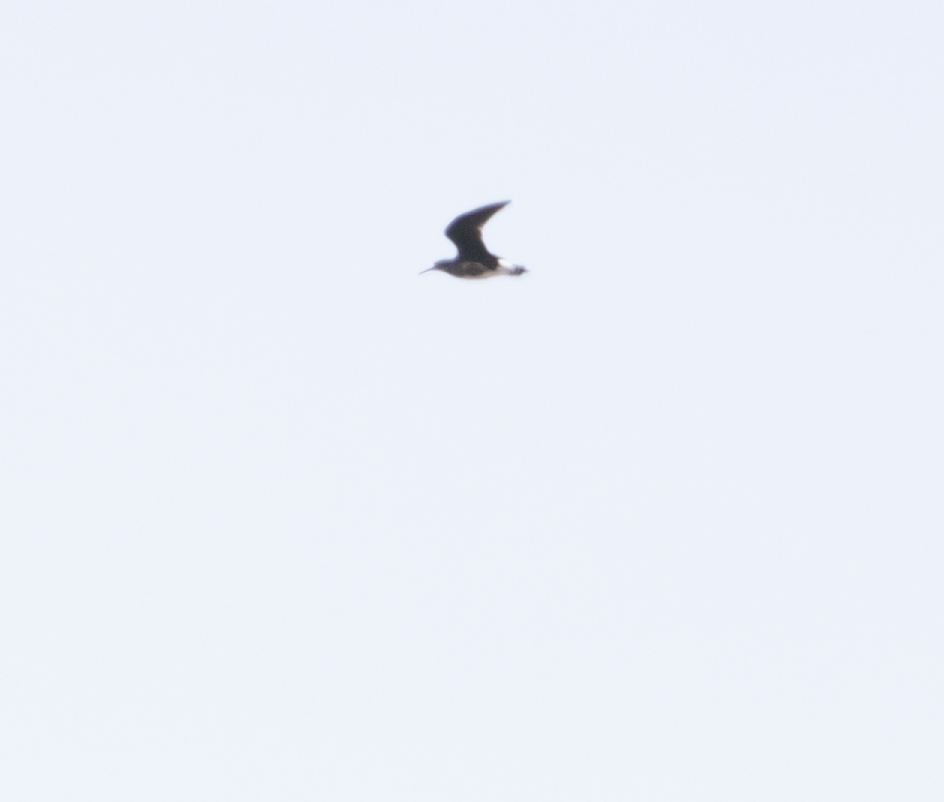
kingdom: Animalia
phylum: Chordata
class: Aves
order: Charadriiformes
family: Scolopacidae
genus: Tringa
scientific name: Tringa ochropus
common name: Green sandpiper
